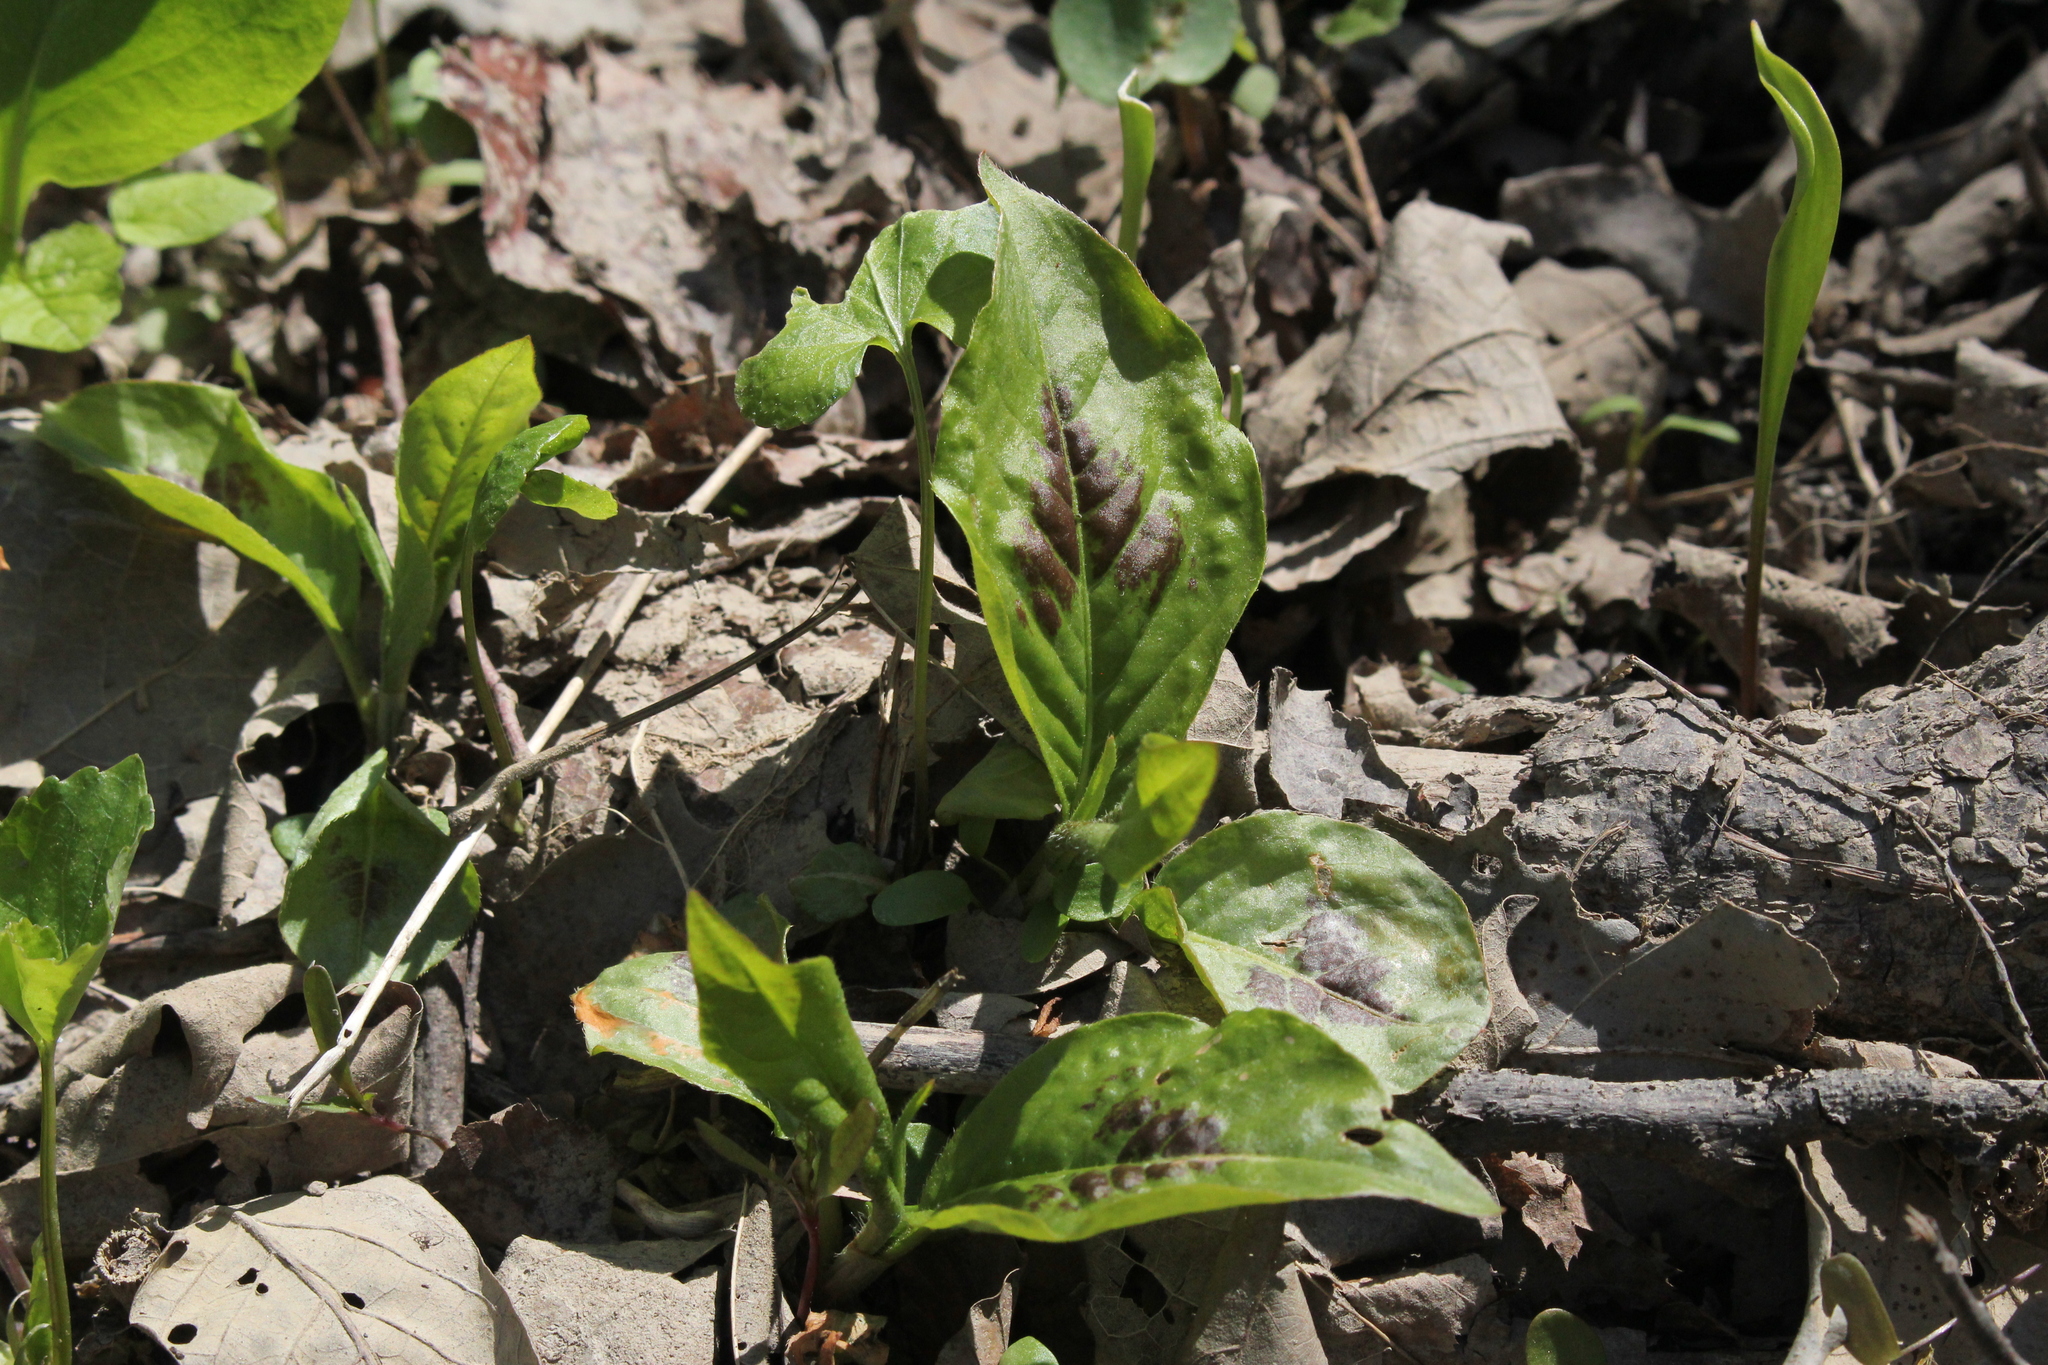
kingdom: Plantae
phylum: Tracheophyta
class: Magnoliopsida
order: Caryophyllales
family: Polygonaceae
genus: Persicaria
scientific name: Persicaria virginiana
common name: Jumpseed
